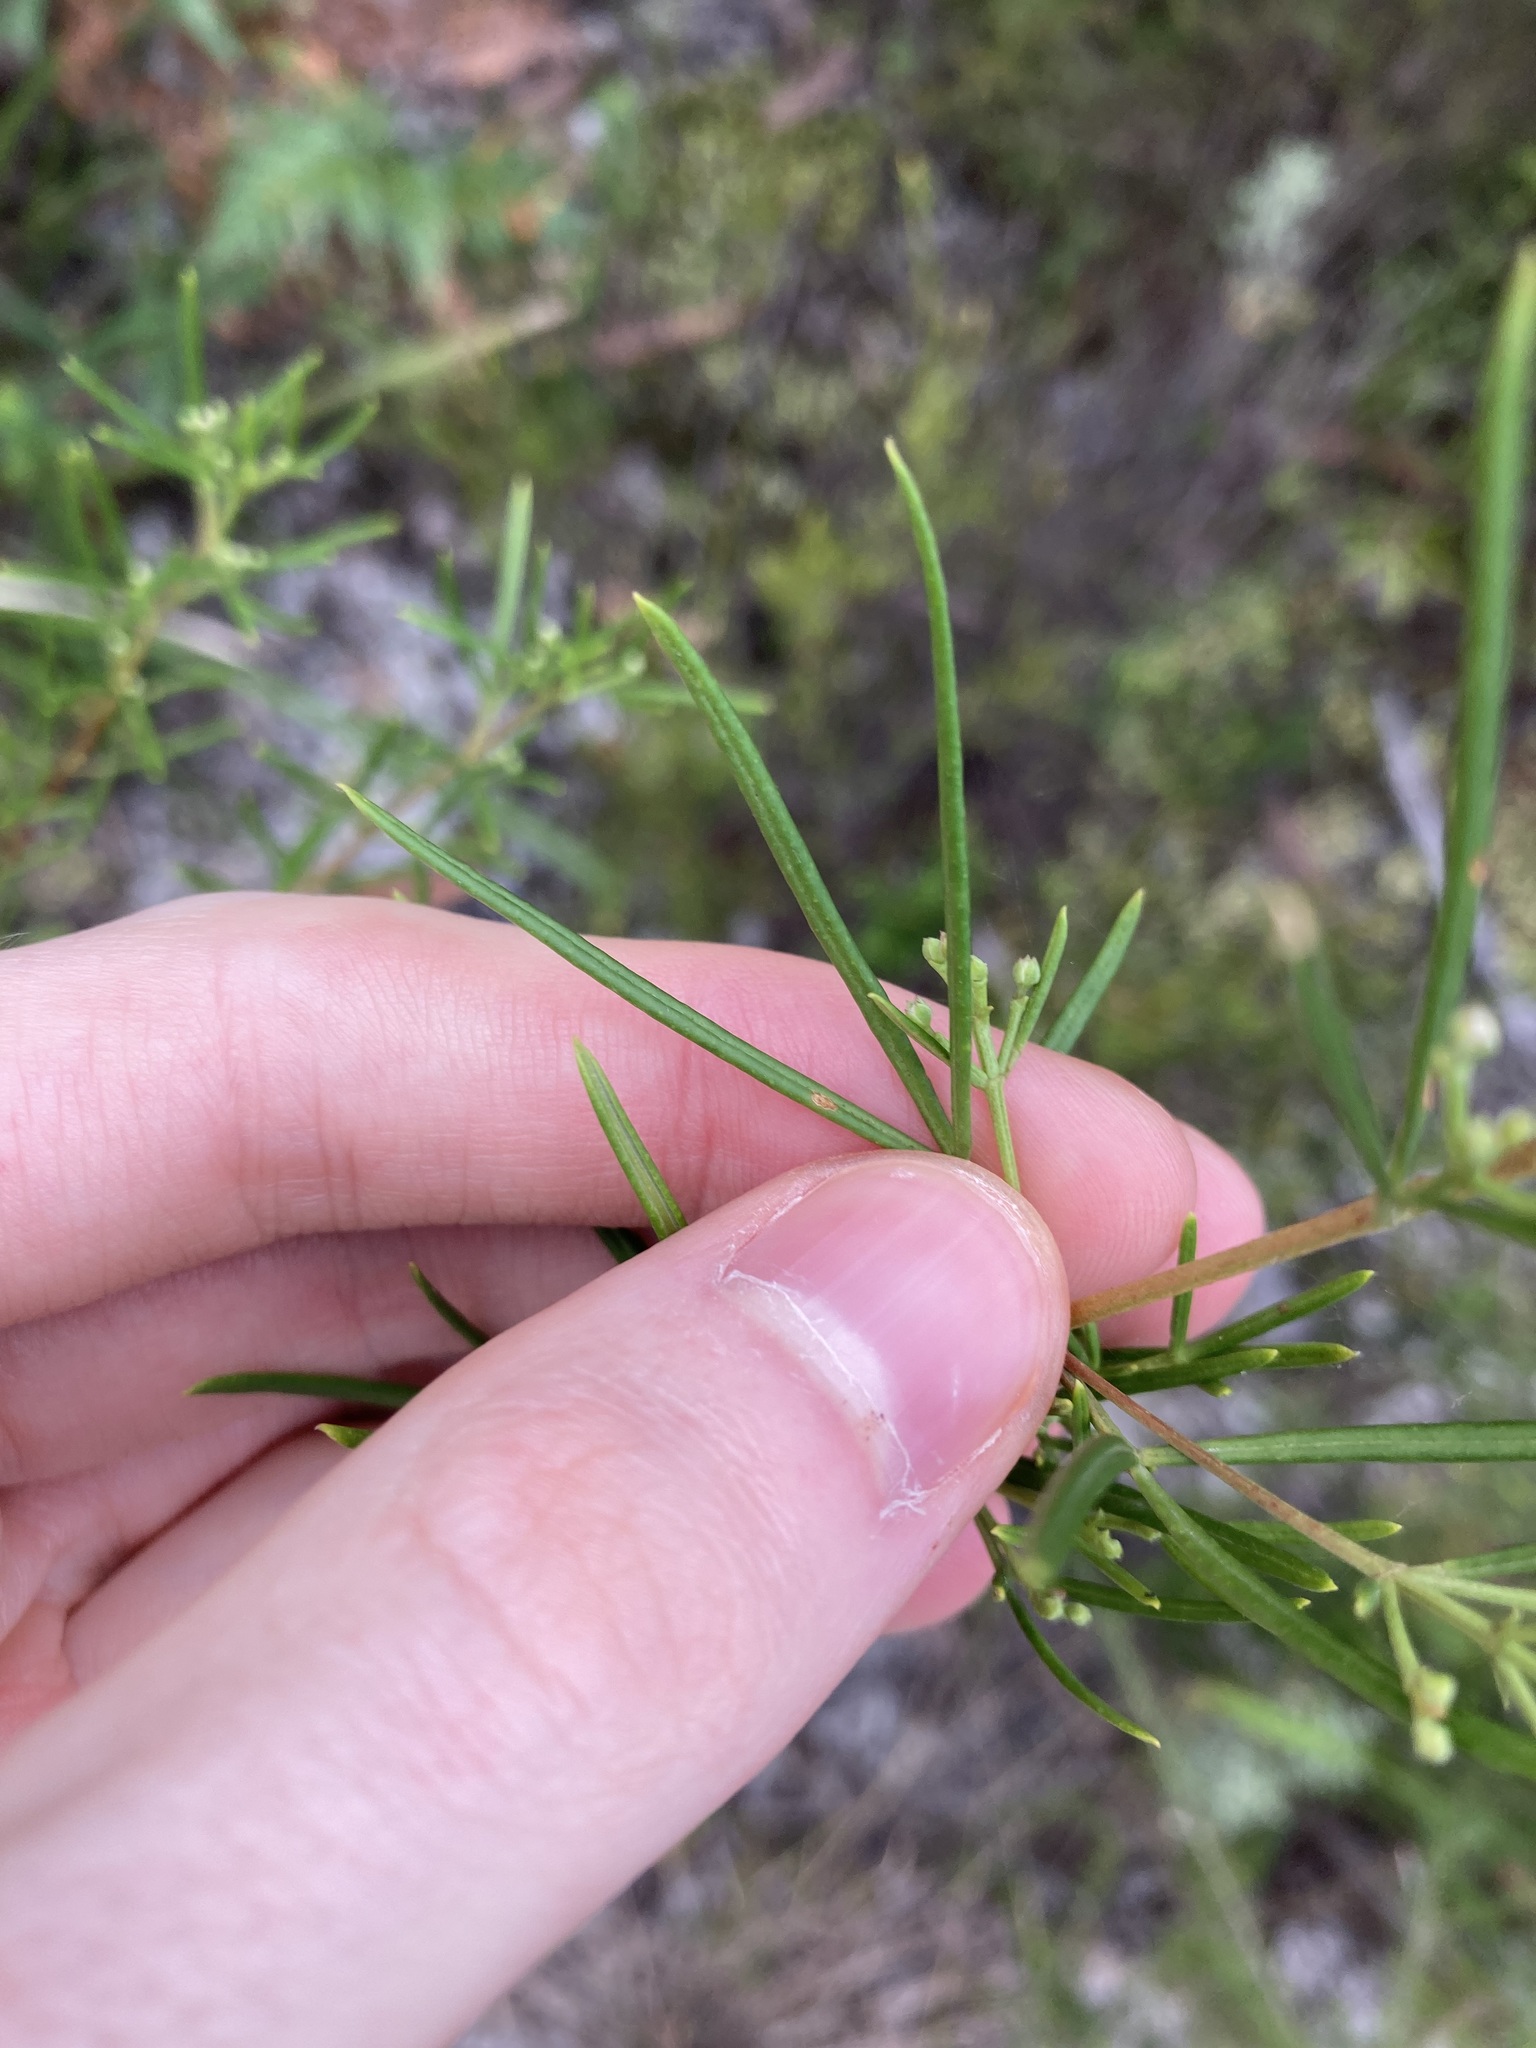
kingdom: Plantae
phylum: Tracheophyta
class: Magnoliopsida
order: Sapindales
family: Rutaceae
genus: Zieria
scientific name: Zieria laevigata
